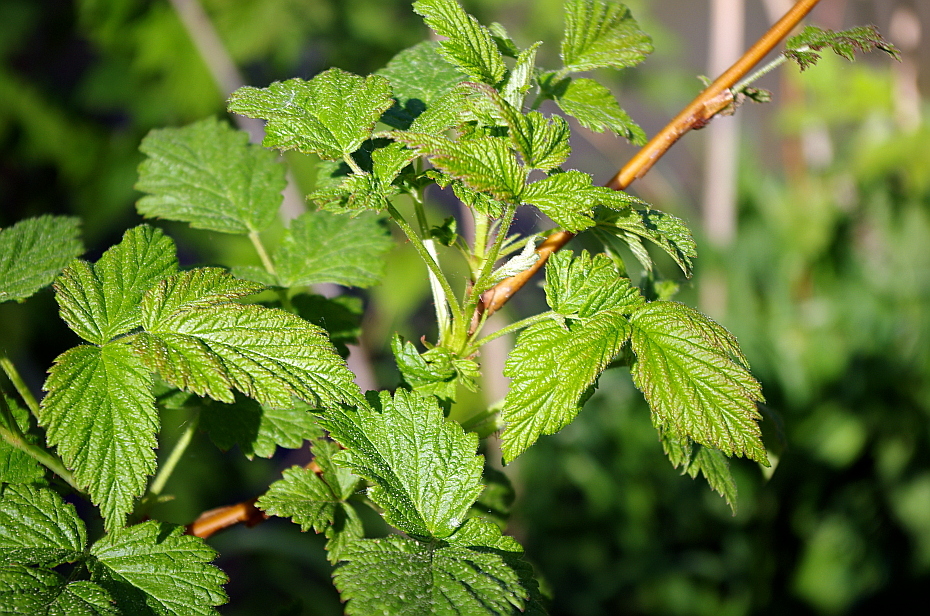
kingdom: Plantae
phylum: Tracheophyta
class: Magnoliopsida
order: Rosales
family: Rosaceae
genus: Rubus
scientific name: Rubus idaeus
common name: Raspberry
